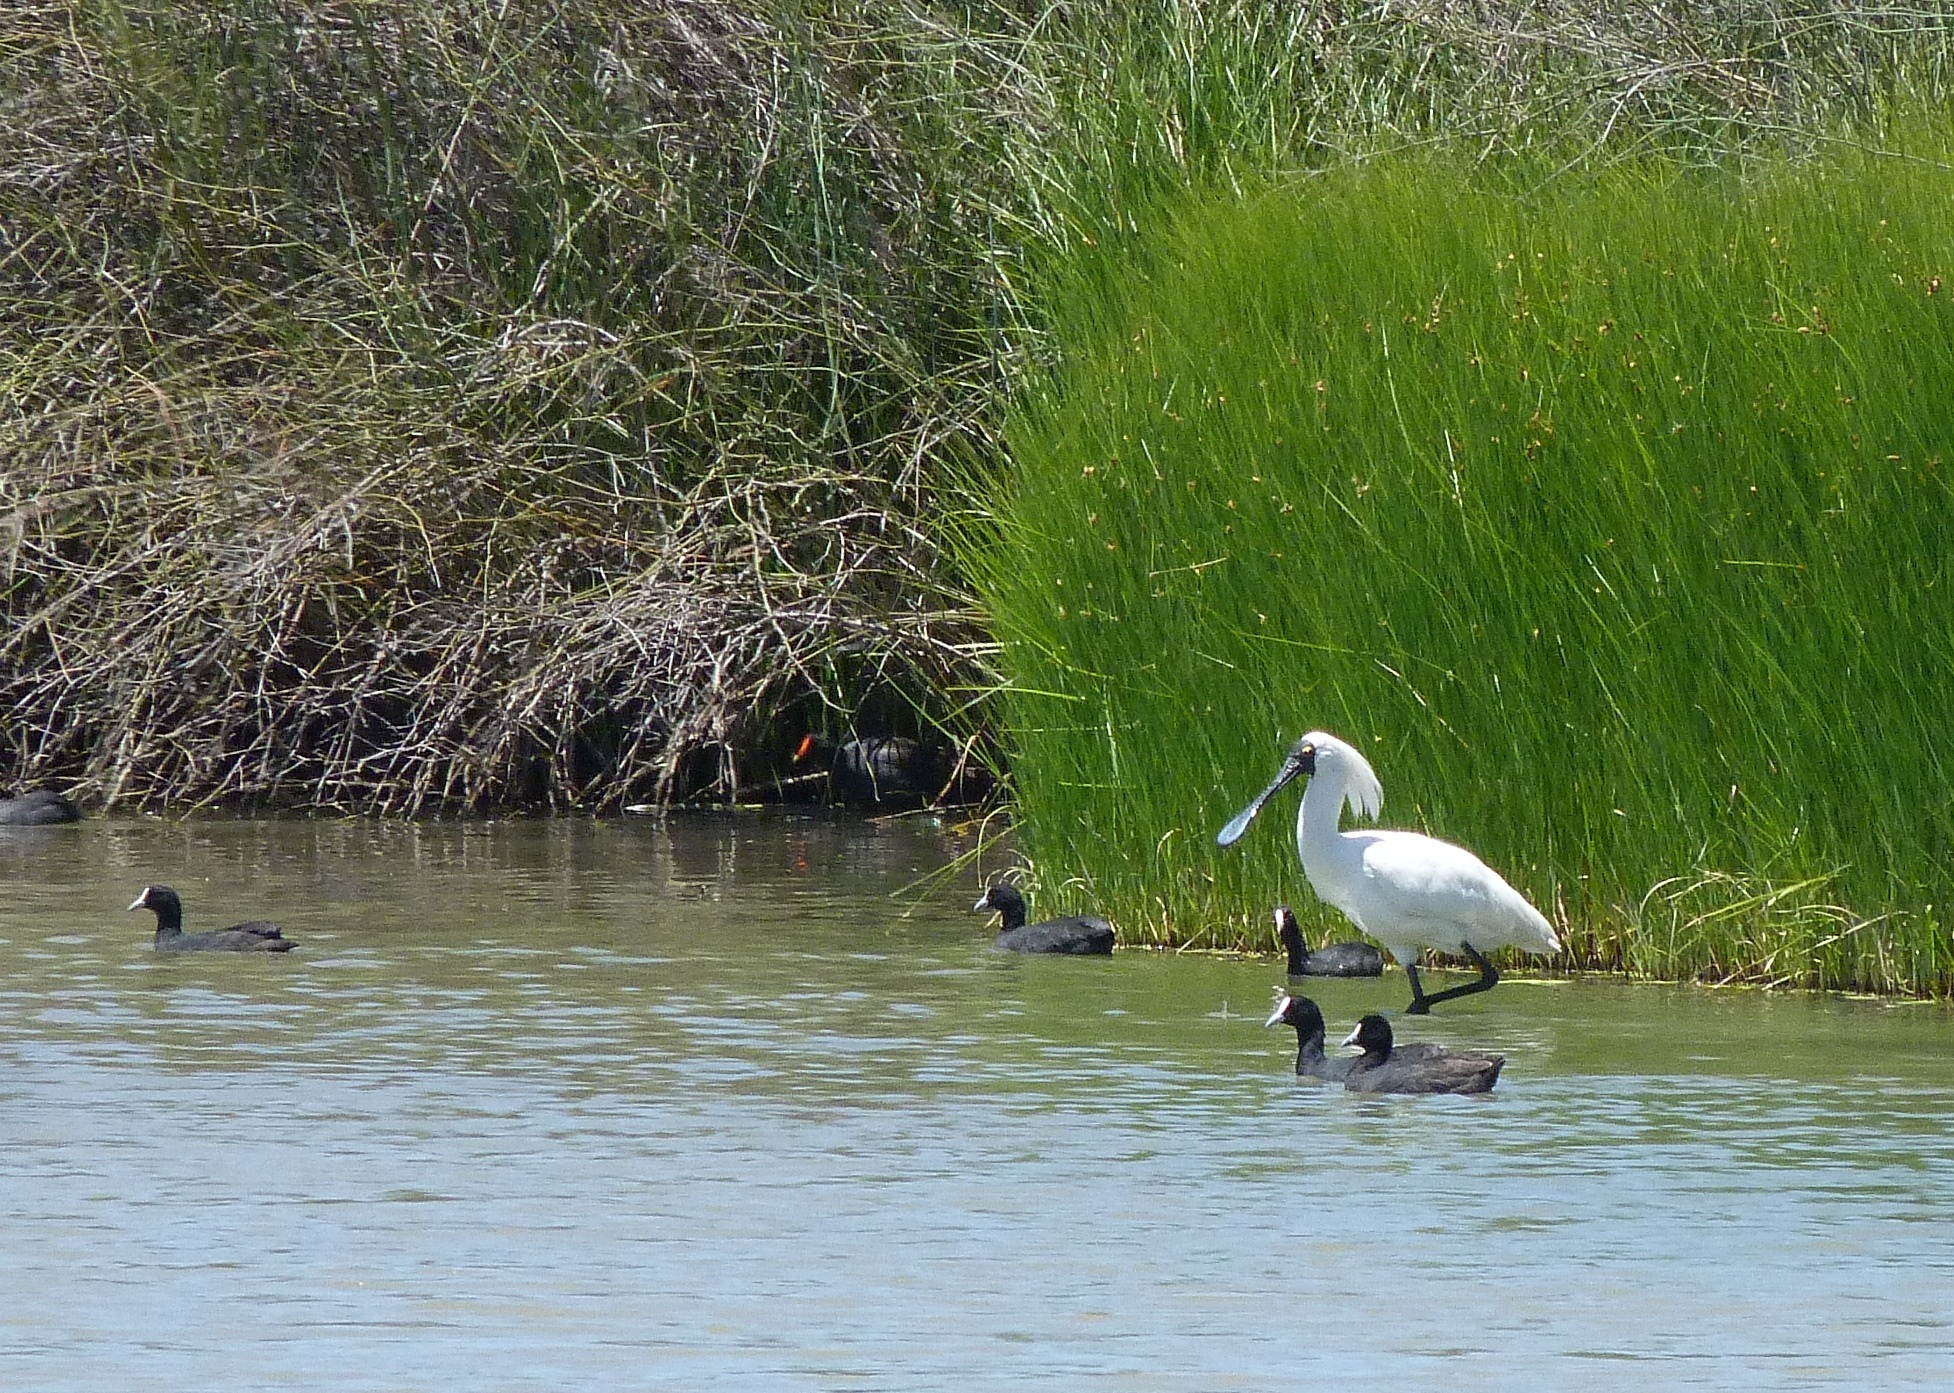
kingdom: Animalia
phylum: Chordata
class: Aves
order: Pelecaniformes
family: Threskiornithidae
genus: Platalea
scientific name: Platalea regia
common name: Royal spoonbill
